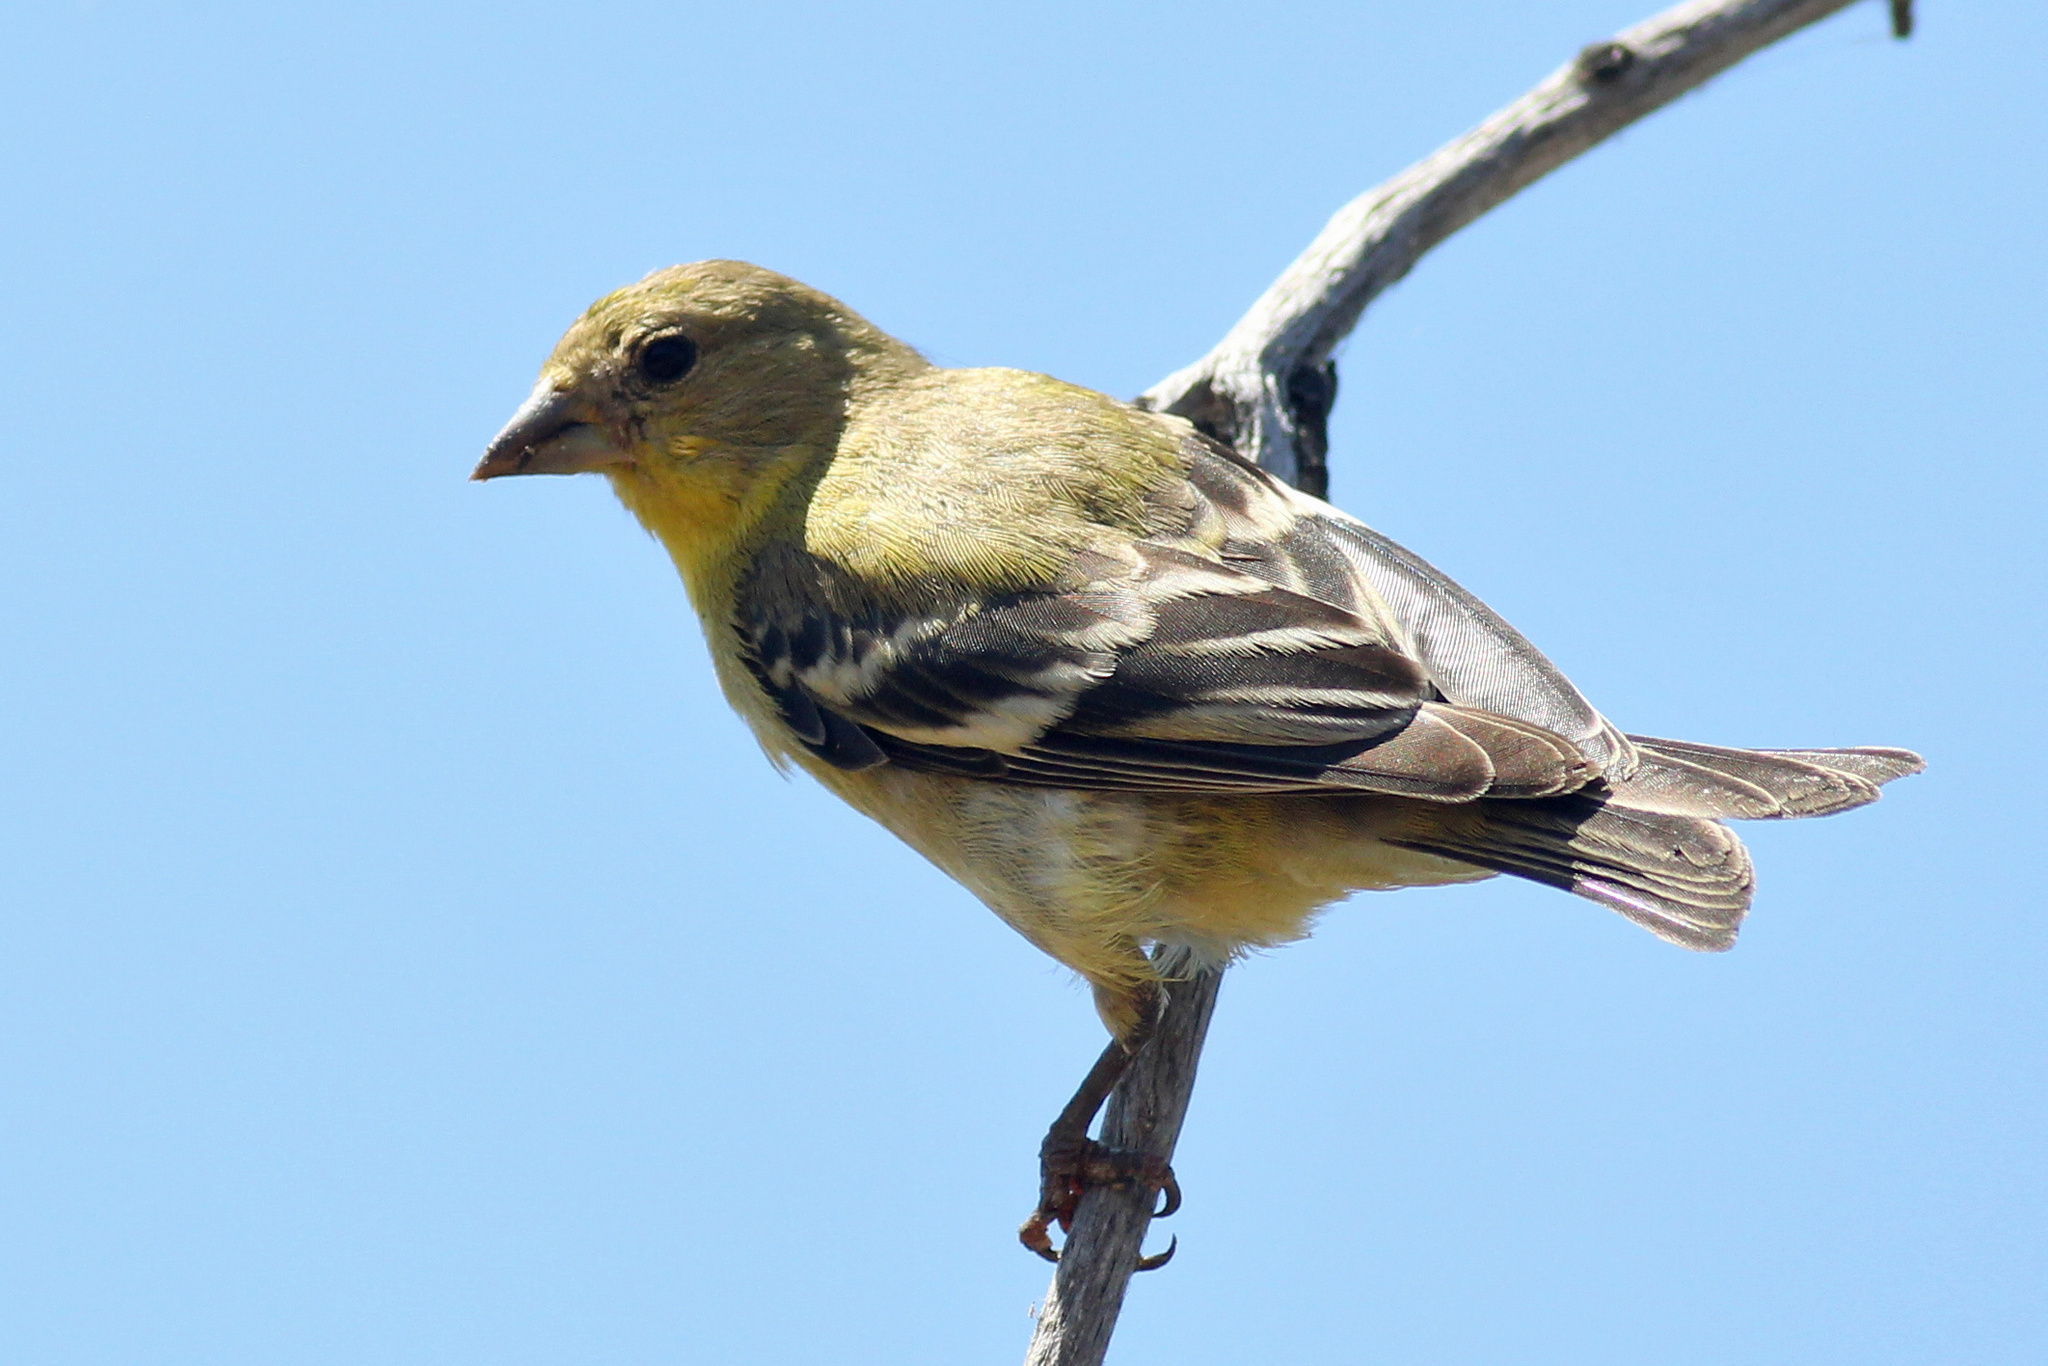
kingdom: Animalia
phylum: Chordata
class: Aves
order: Passeriformes
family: Fringillidae
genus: Spinus
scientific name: Spinus psaltria
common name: Lesser goldfinch
